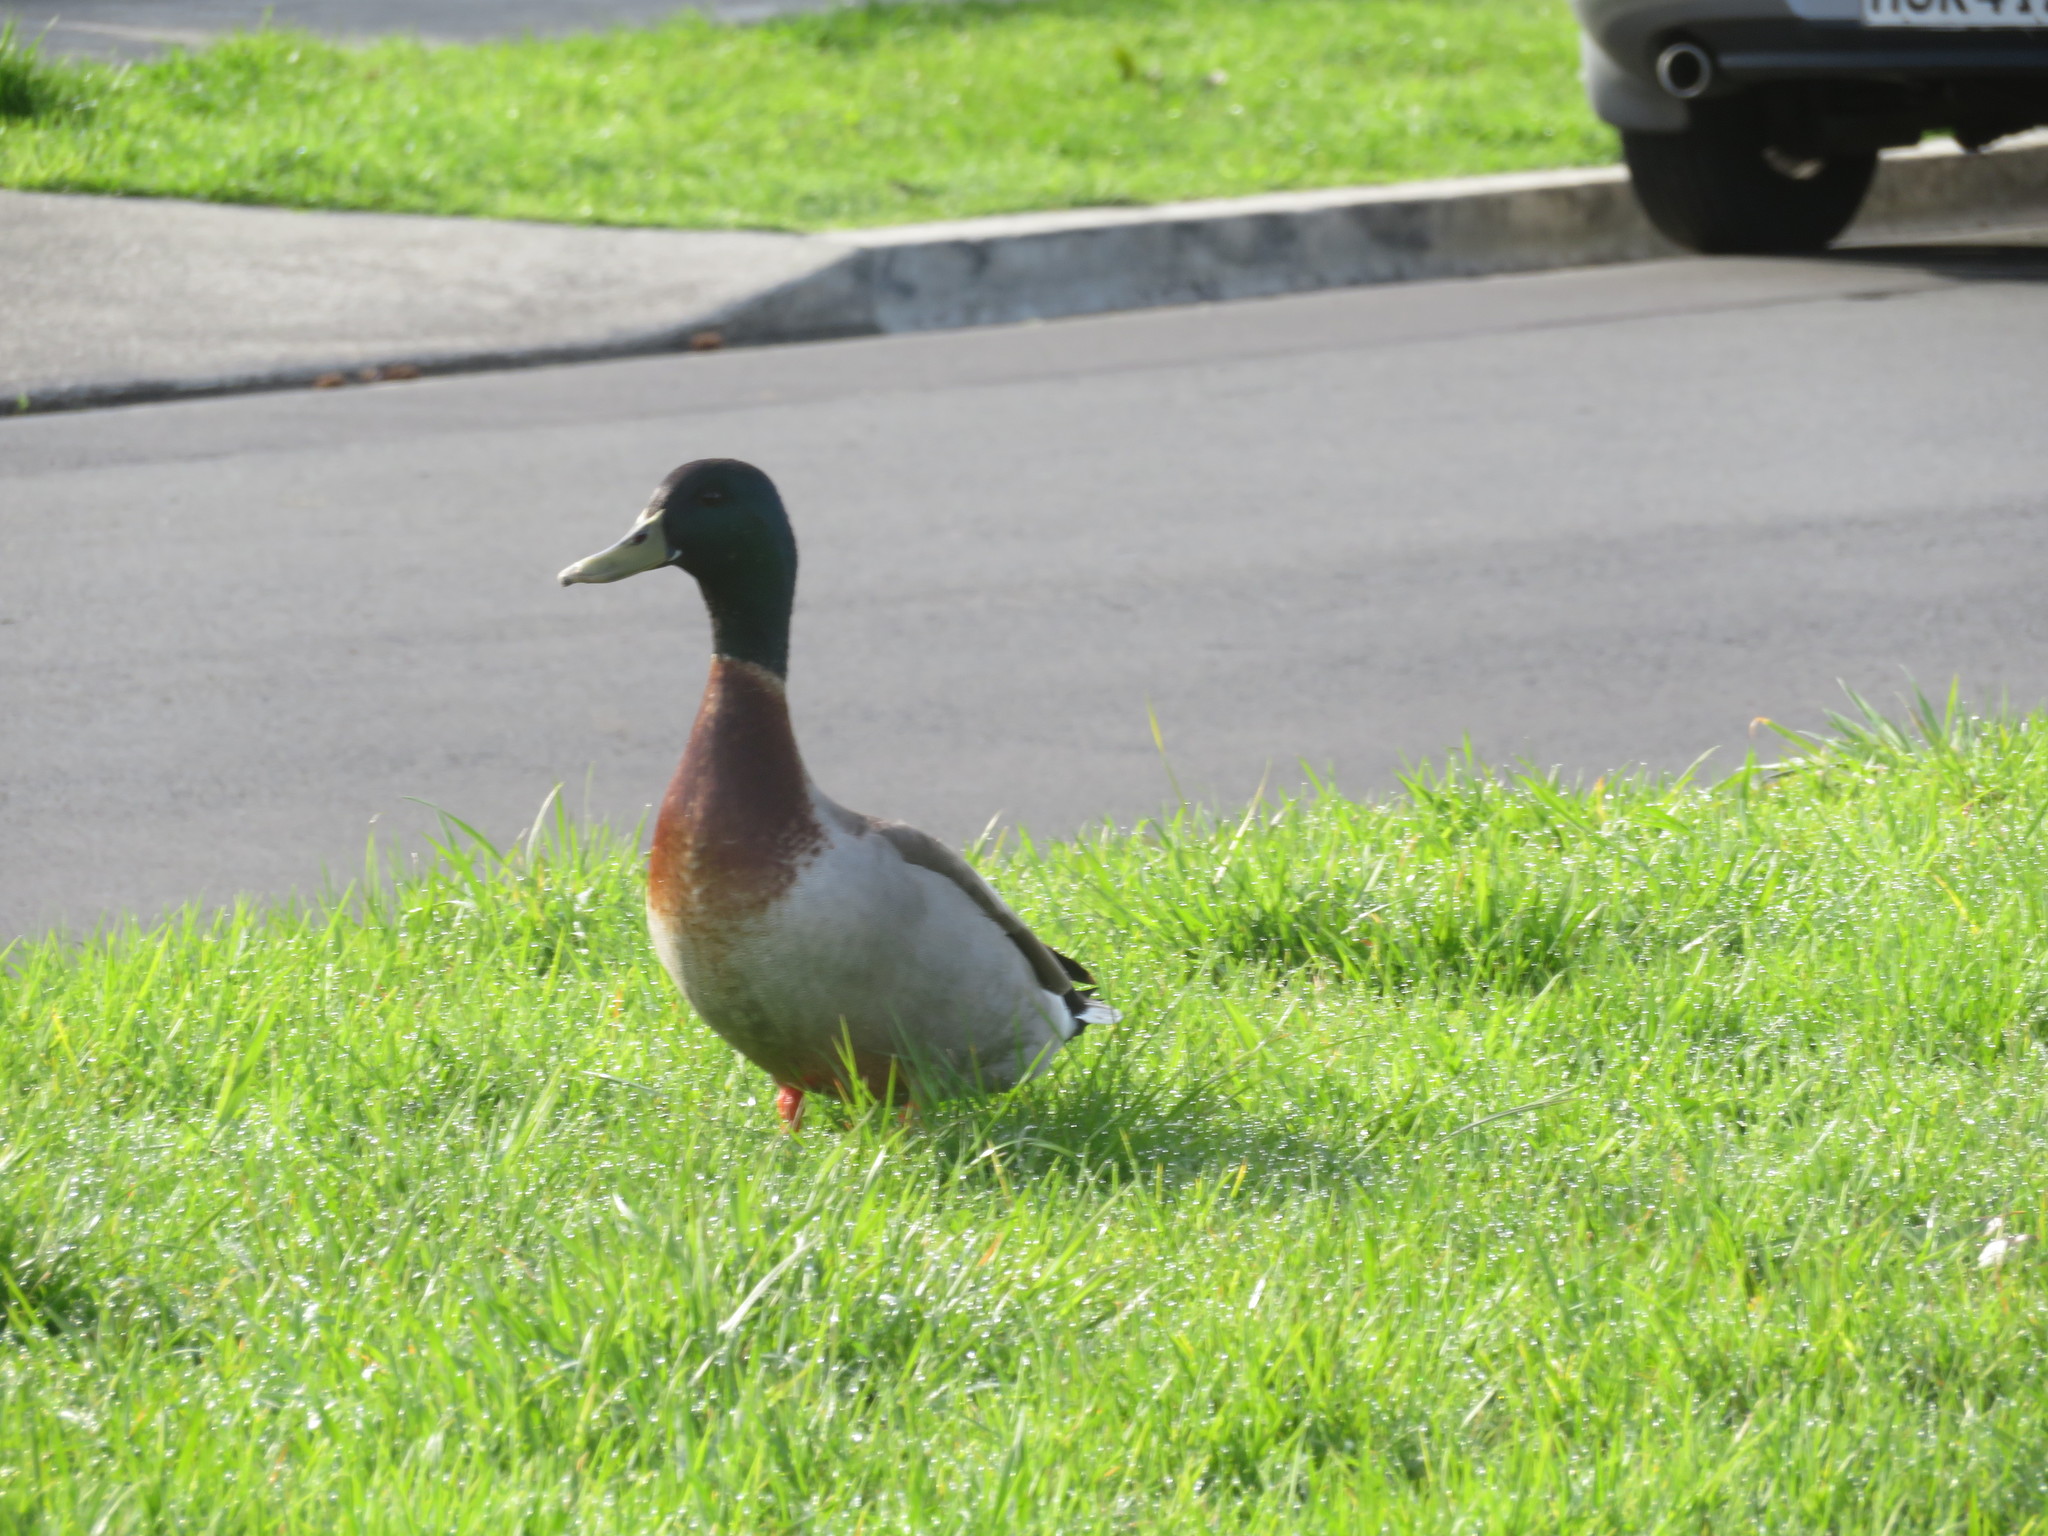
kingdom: Animalia
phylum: Chordata
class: Aves
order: Anseriformes
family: Anatidae
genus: Anas
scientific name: Anas platyrhynchos
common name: Mallard
